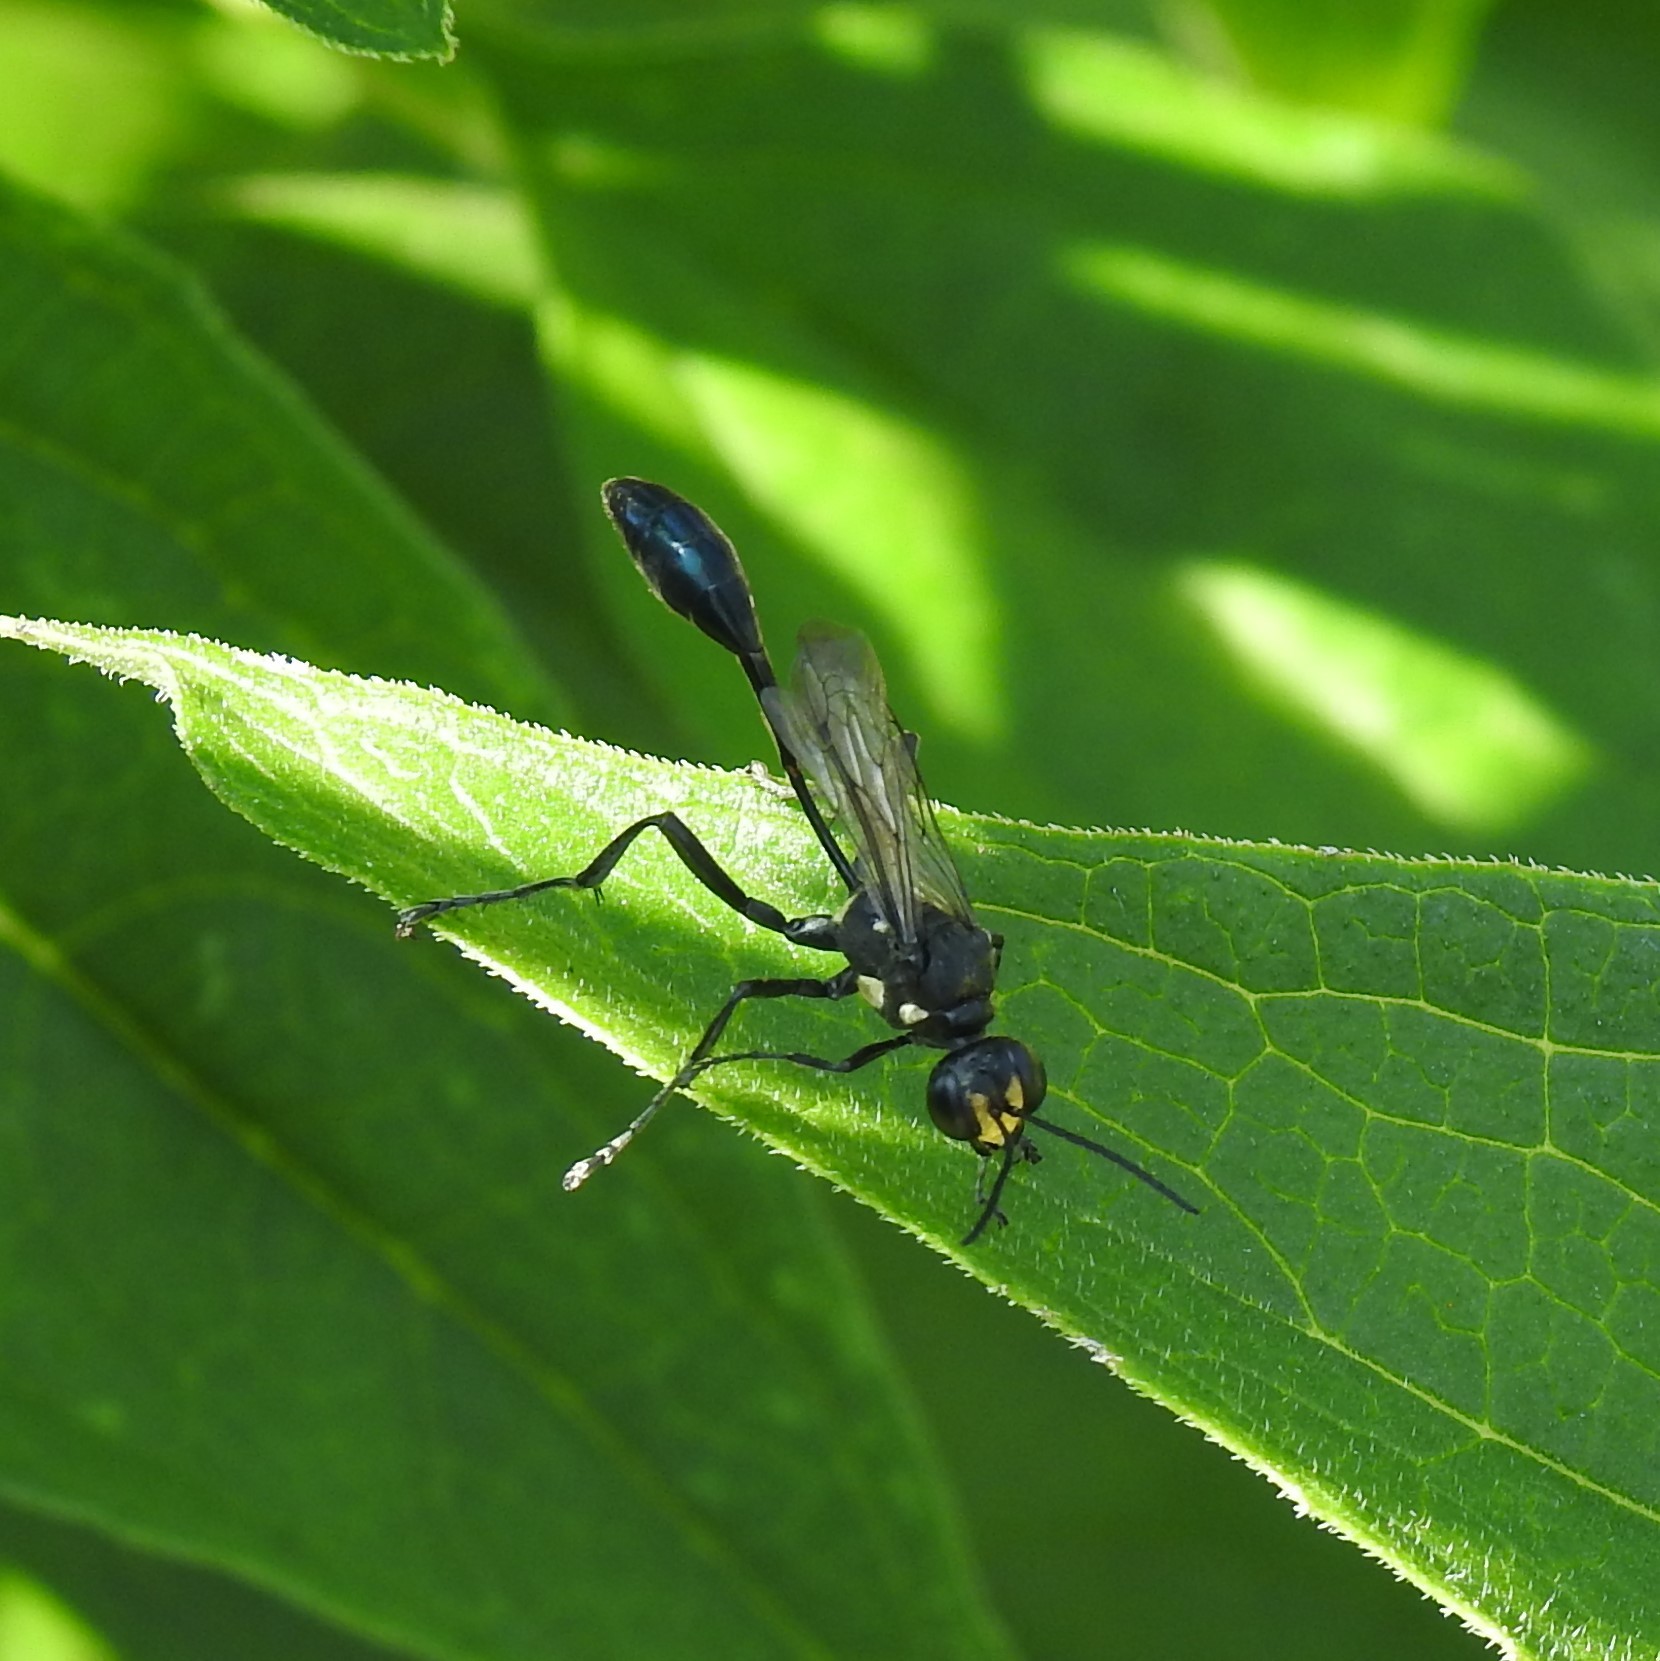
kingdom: Animalia
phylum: Arthropoda
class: Insecta
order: Hymenoptera
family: Sphecidae
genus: Eremnophila
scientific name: Eremnophila aureonotata
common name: Gold-marked thread-waisted wasp
